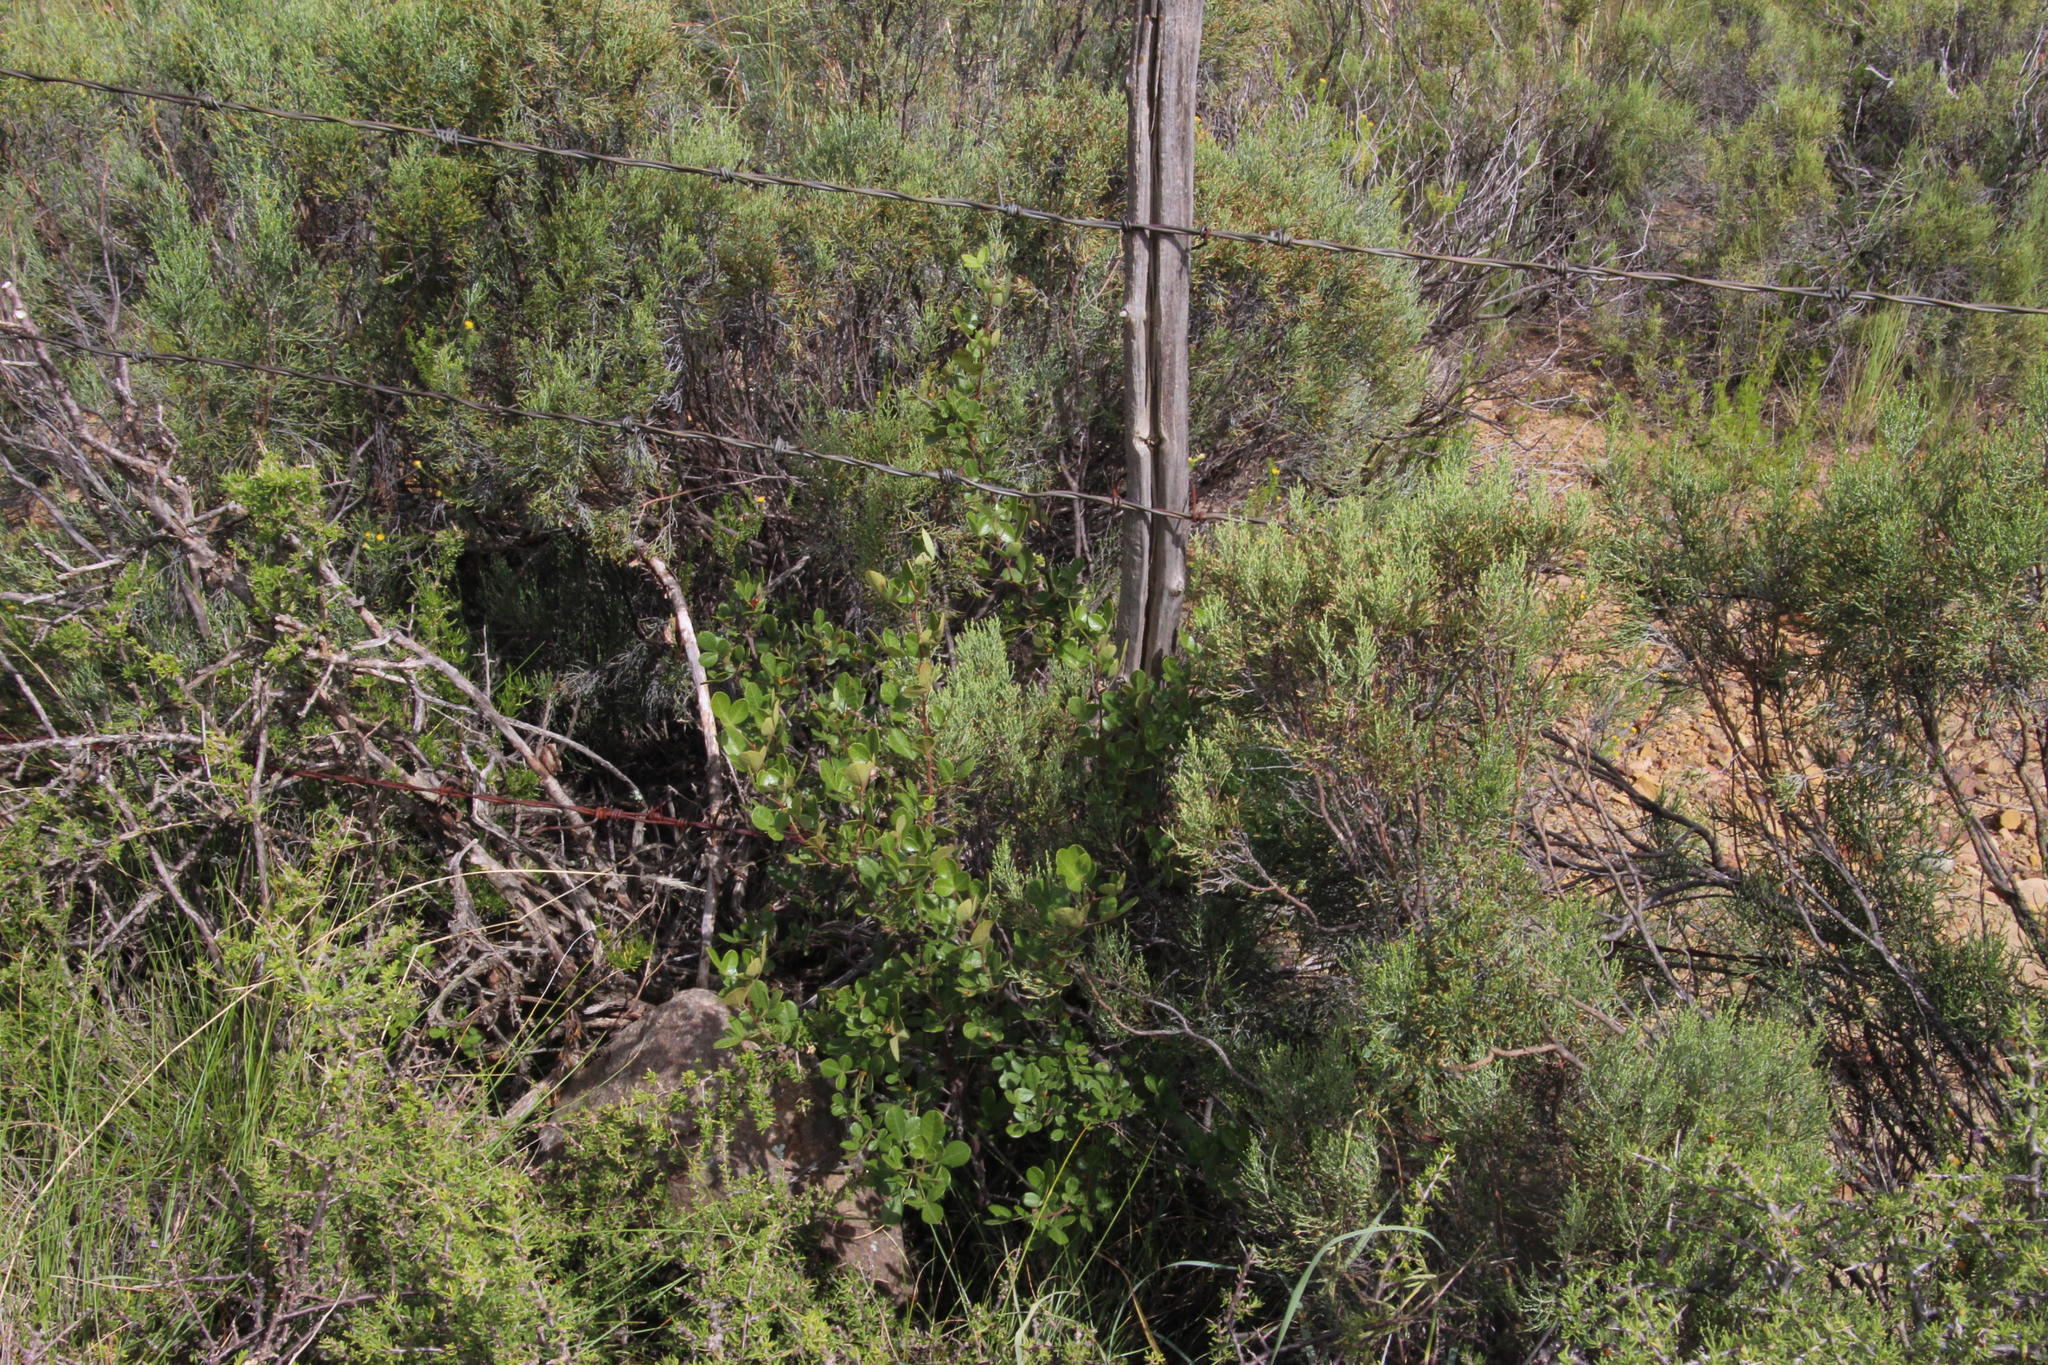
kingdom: Plantae
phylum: Tracheophyta
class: Magnoliopsida
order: Sapindales
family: Anacardiaceae
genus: Searsia
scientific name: Searsia divaricata
